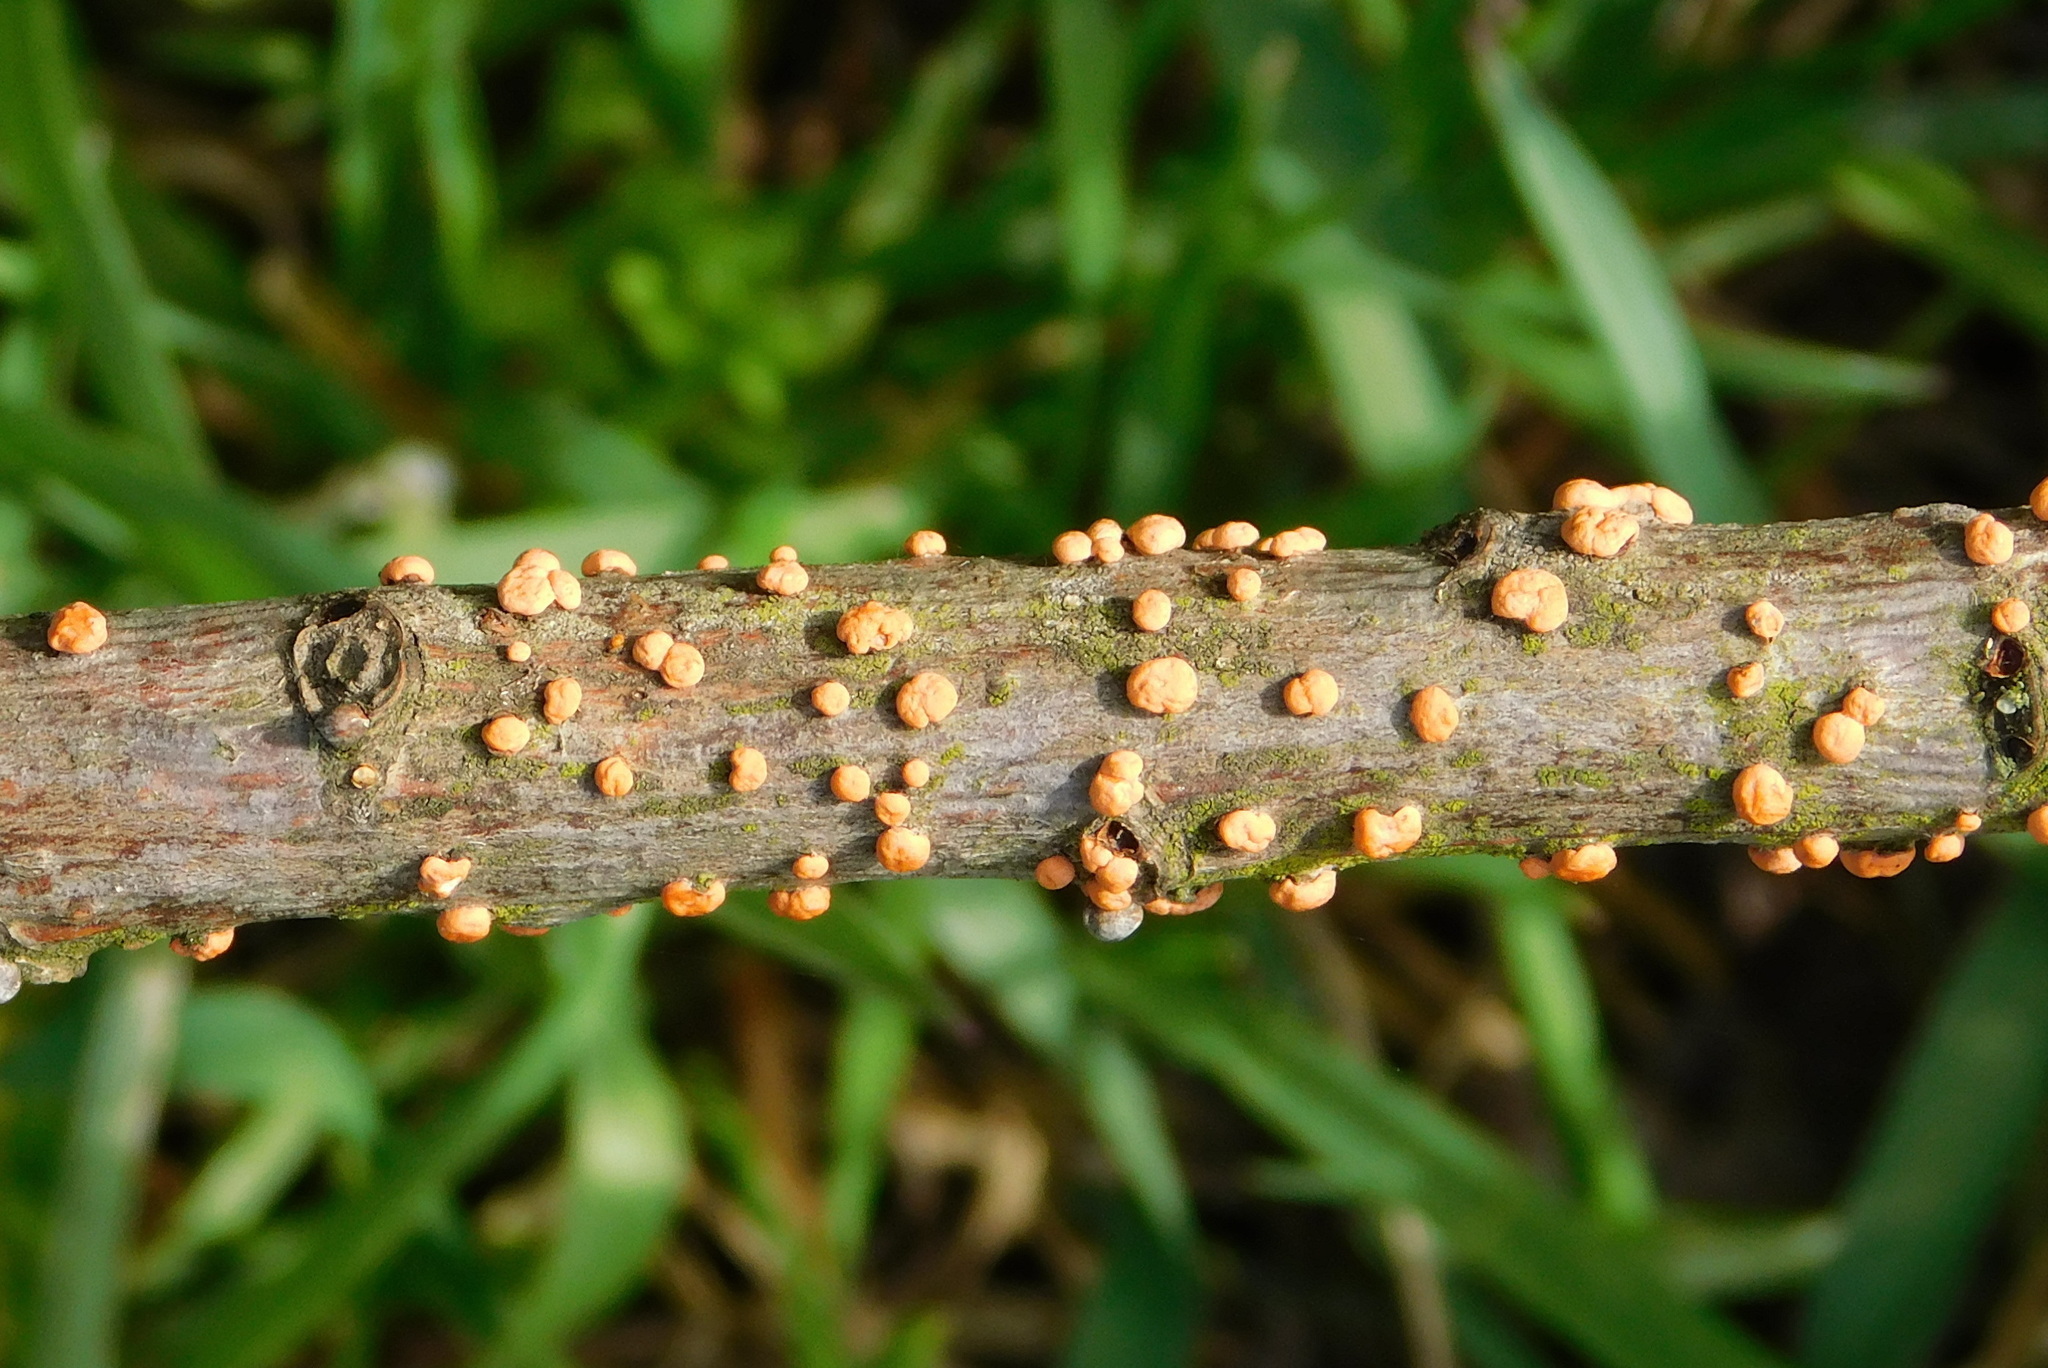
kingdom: Fungi
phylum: Ascomycota
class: Sordariomycetes
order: Hypocreales
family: Nectriaceae
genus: Nectria
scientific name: Nectria cinnabarina
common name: Coral spot
